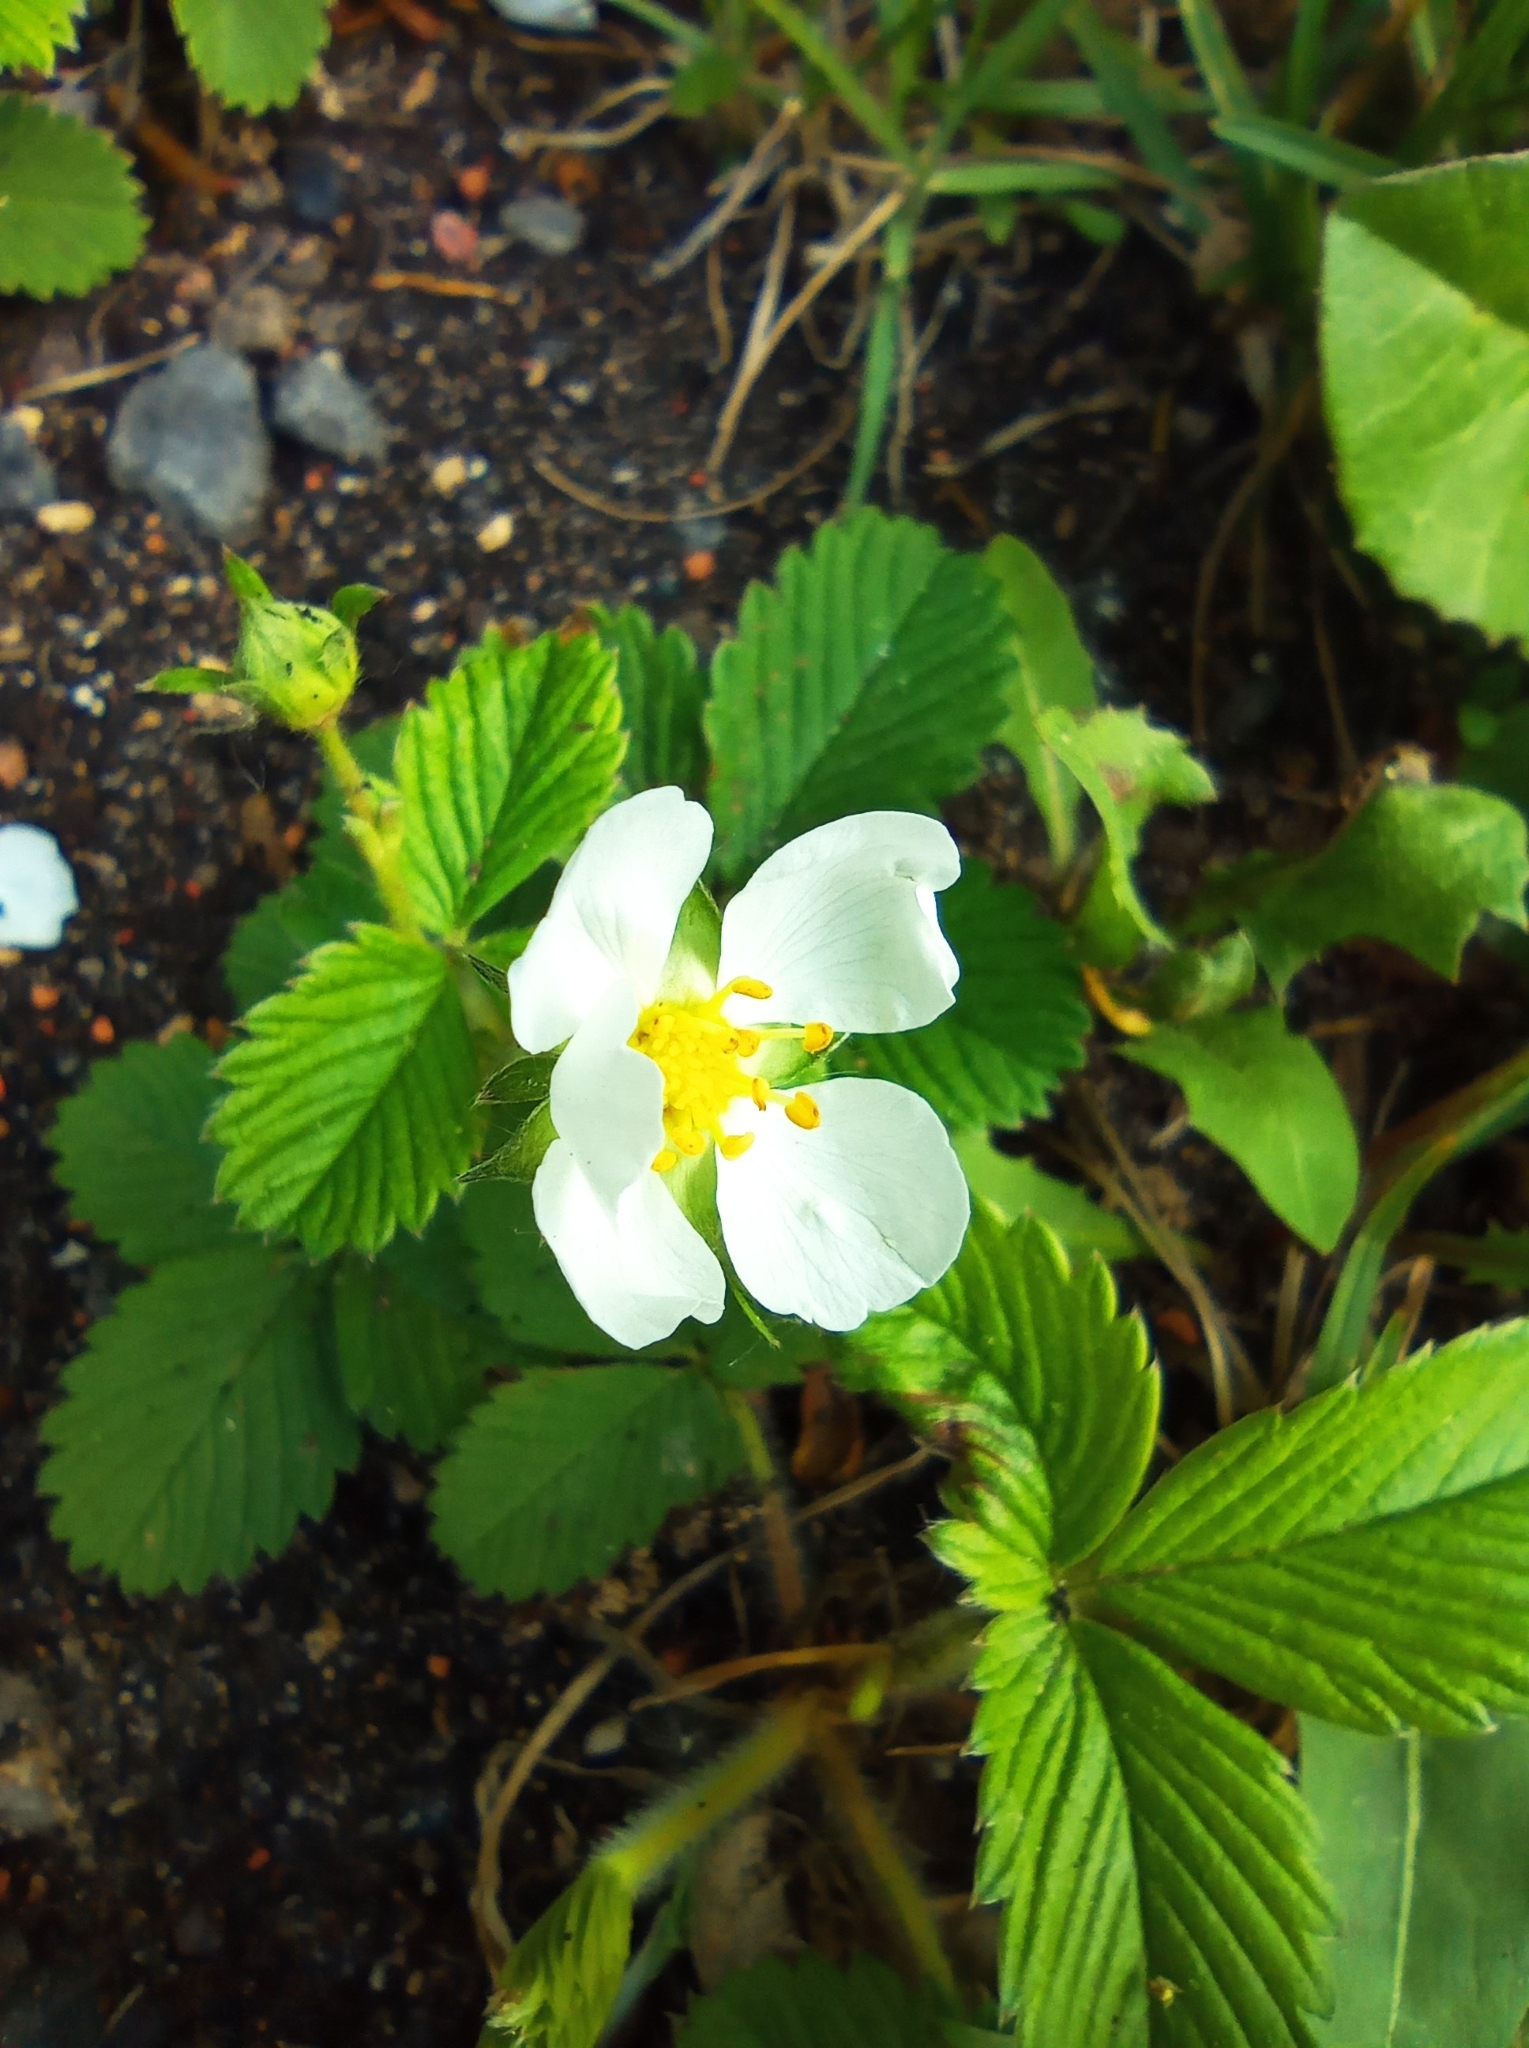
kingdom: Plantae
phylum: Tracheophyta
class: Magnoliopsida
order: Rosales
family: Rosaceae
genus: Fragaria
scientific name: Fragaria viridis
